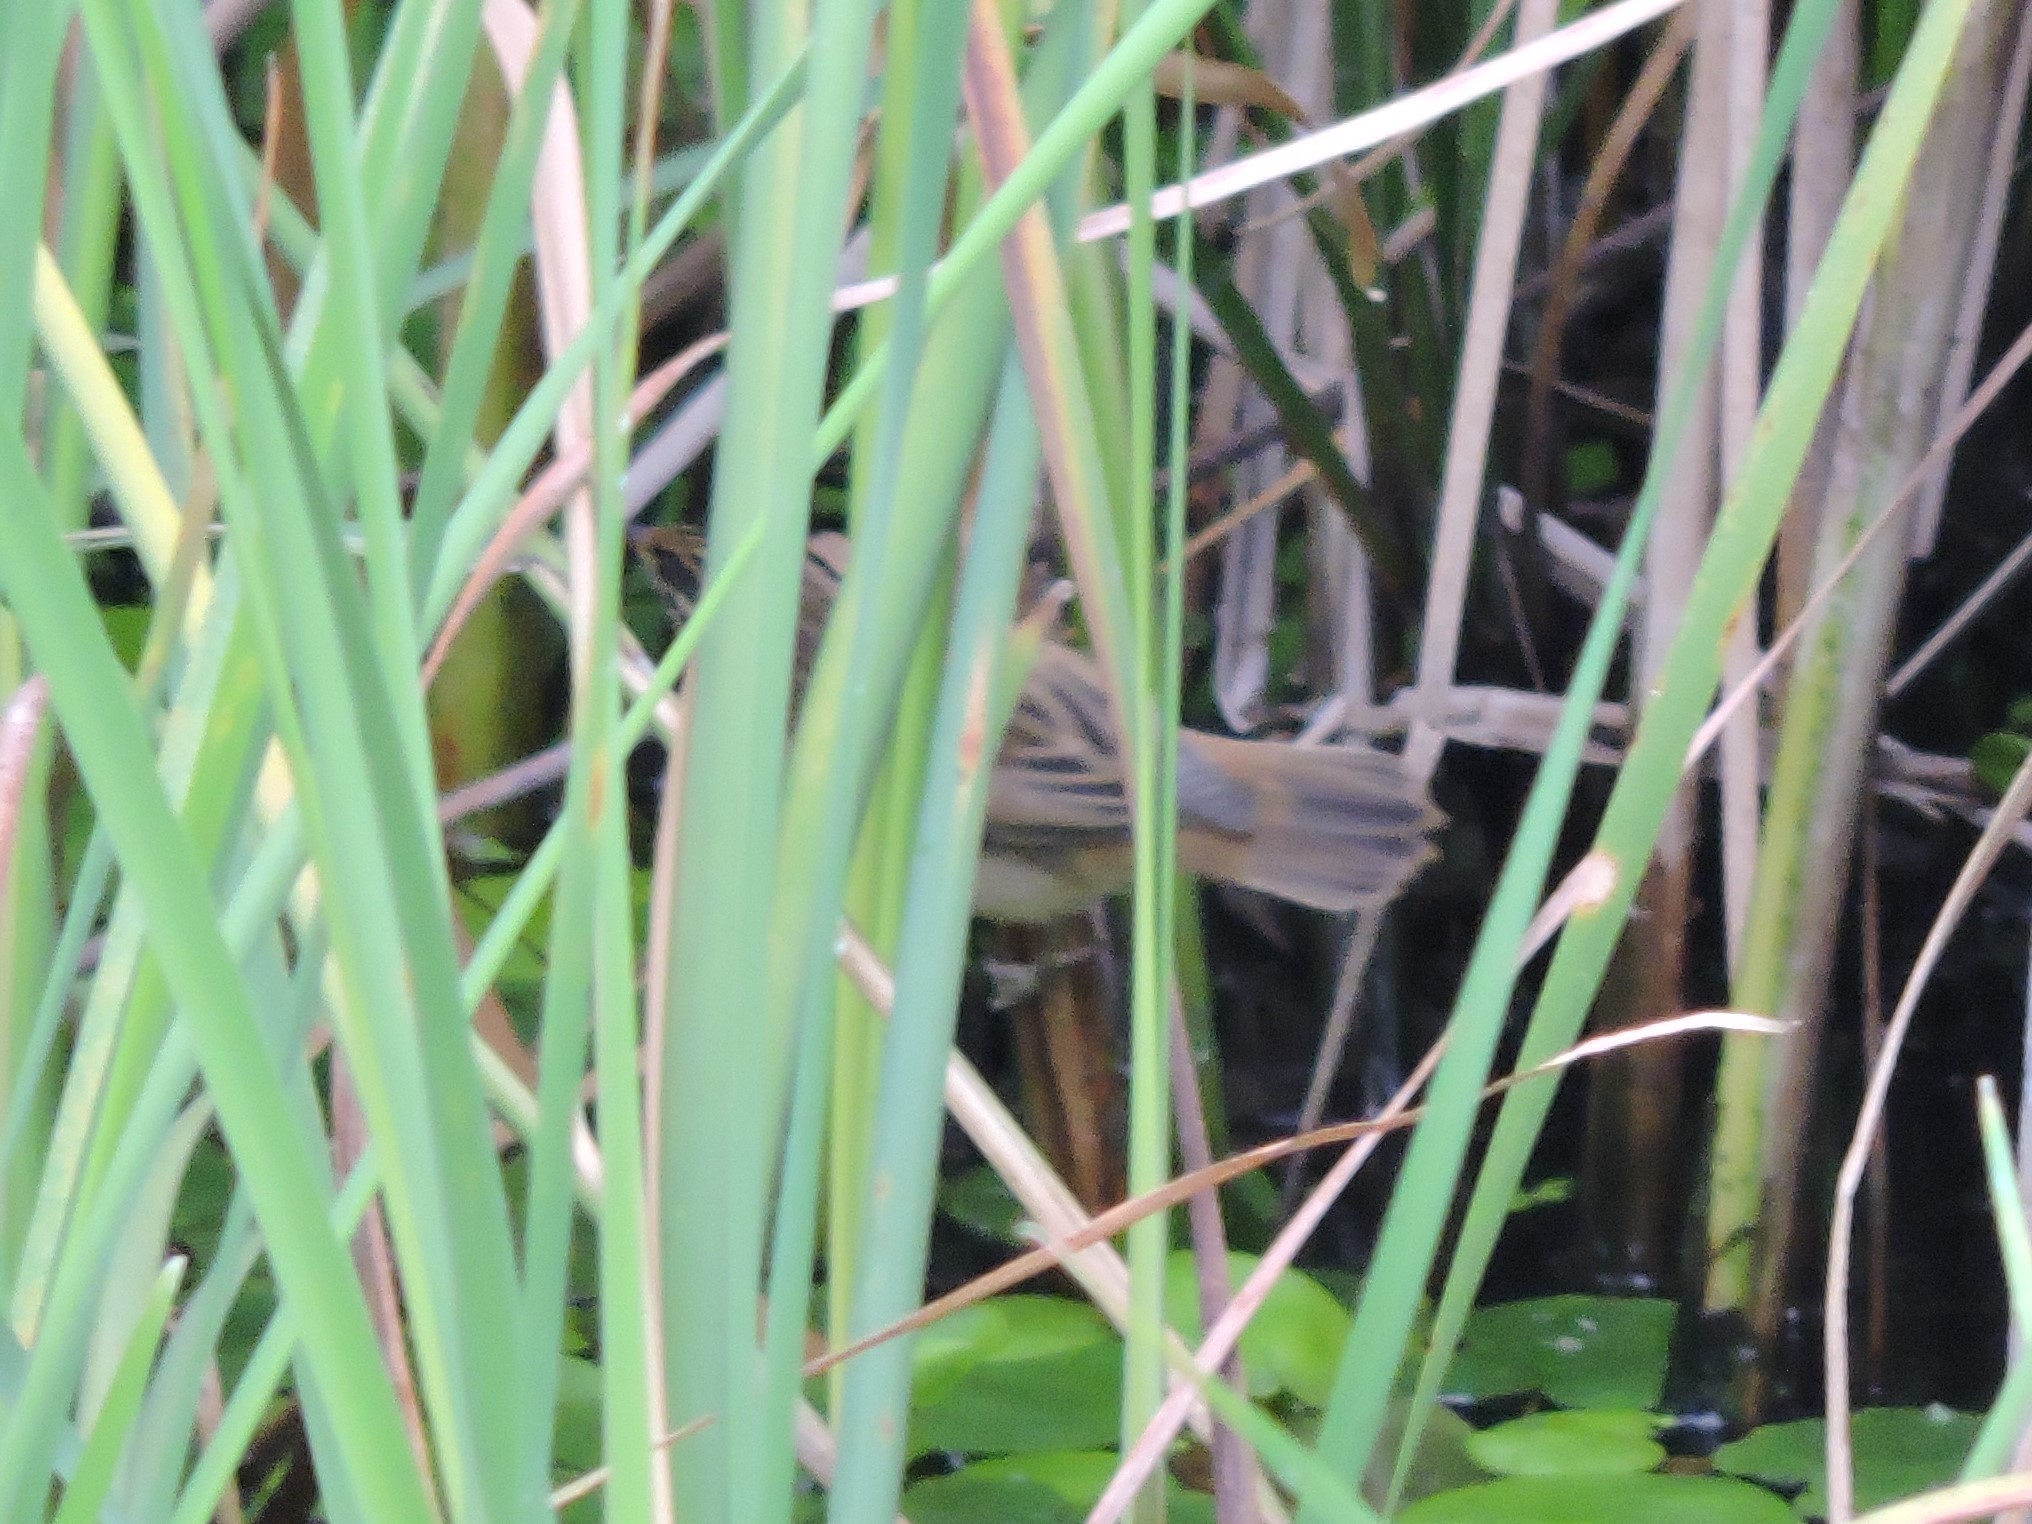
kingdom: Animalia
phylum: Chordata
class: Aves
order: Passeriformes
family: Acrocephalidae
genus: Acrocephalus
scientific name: Acrocephalus schoenobaenus
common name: Sedge warbler
